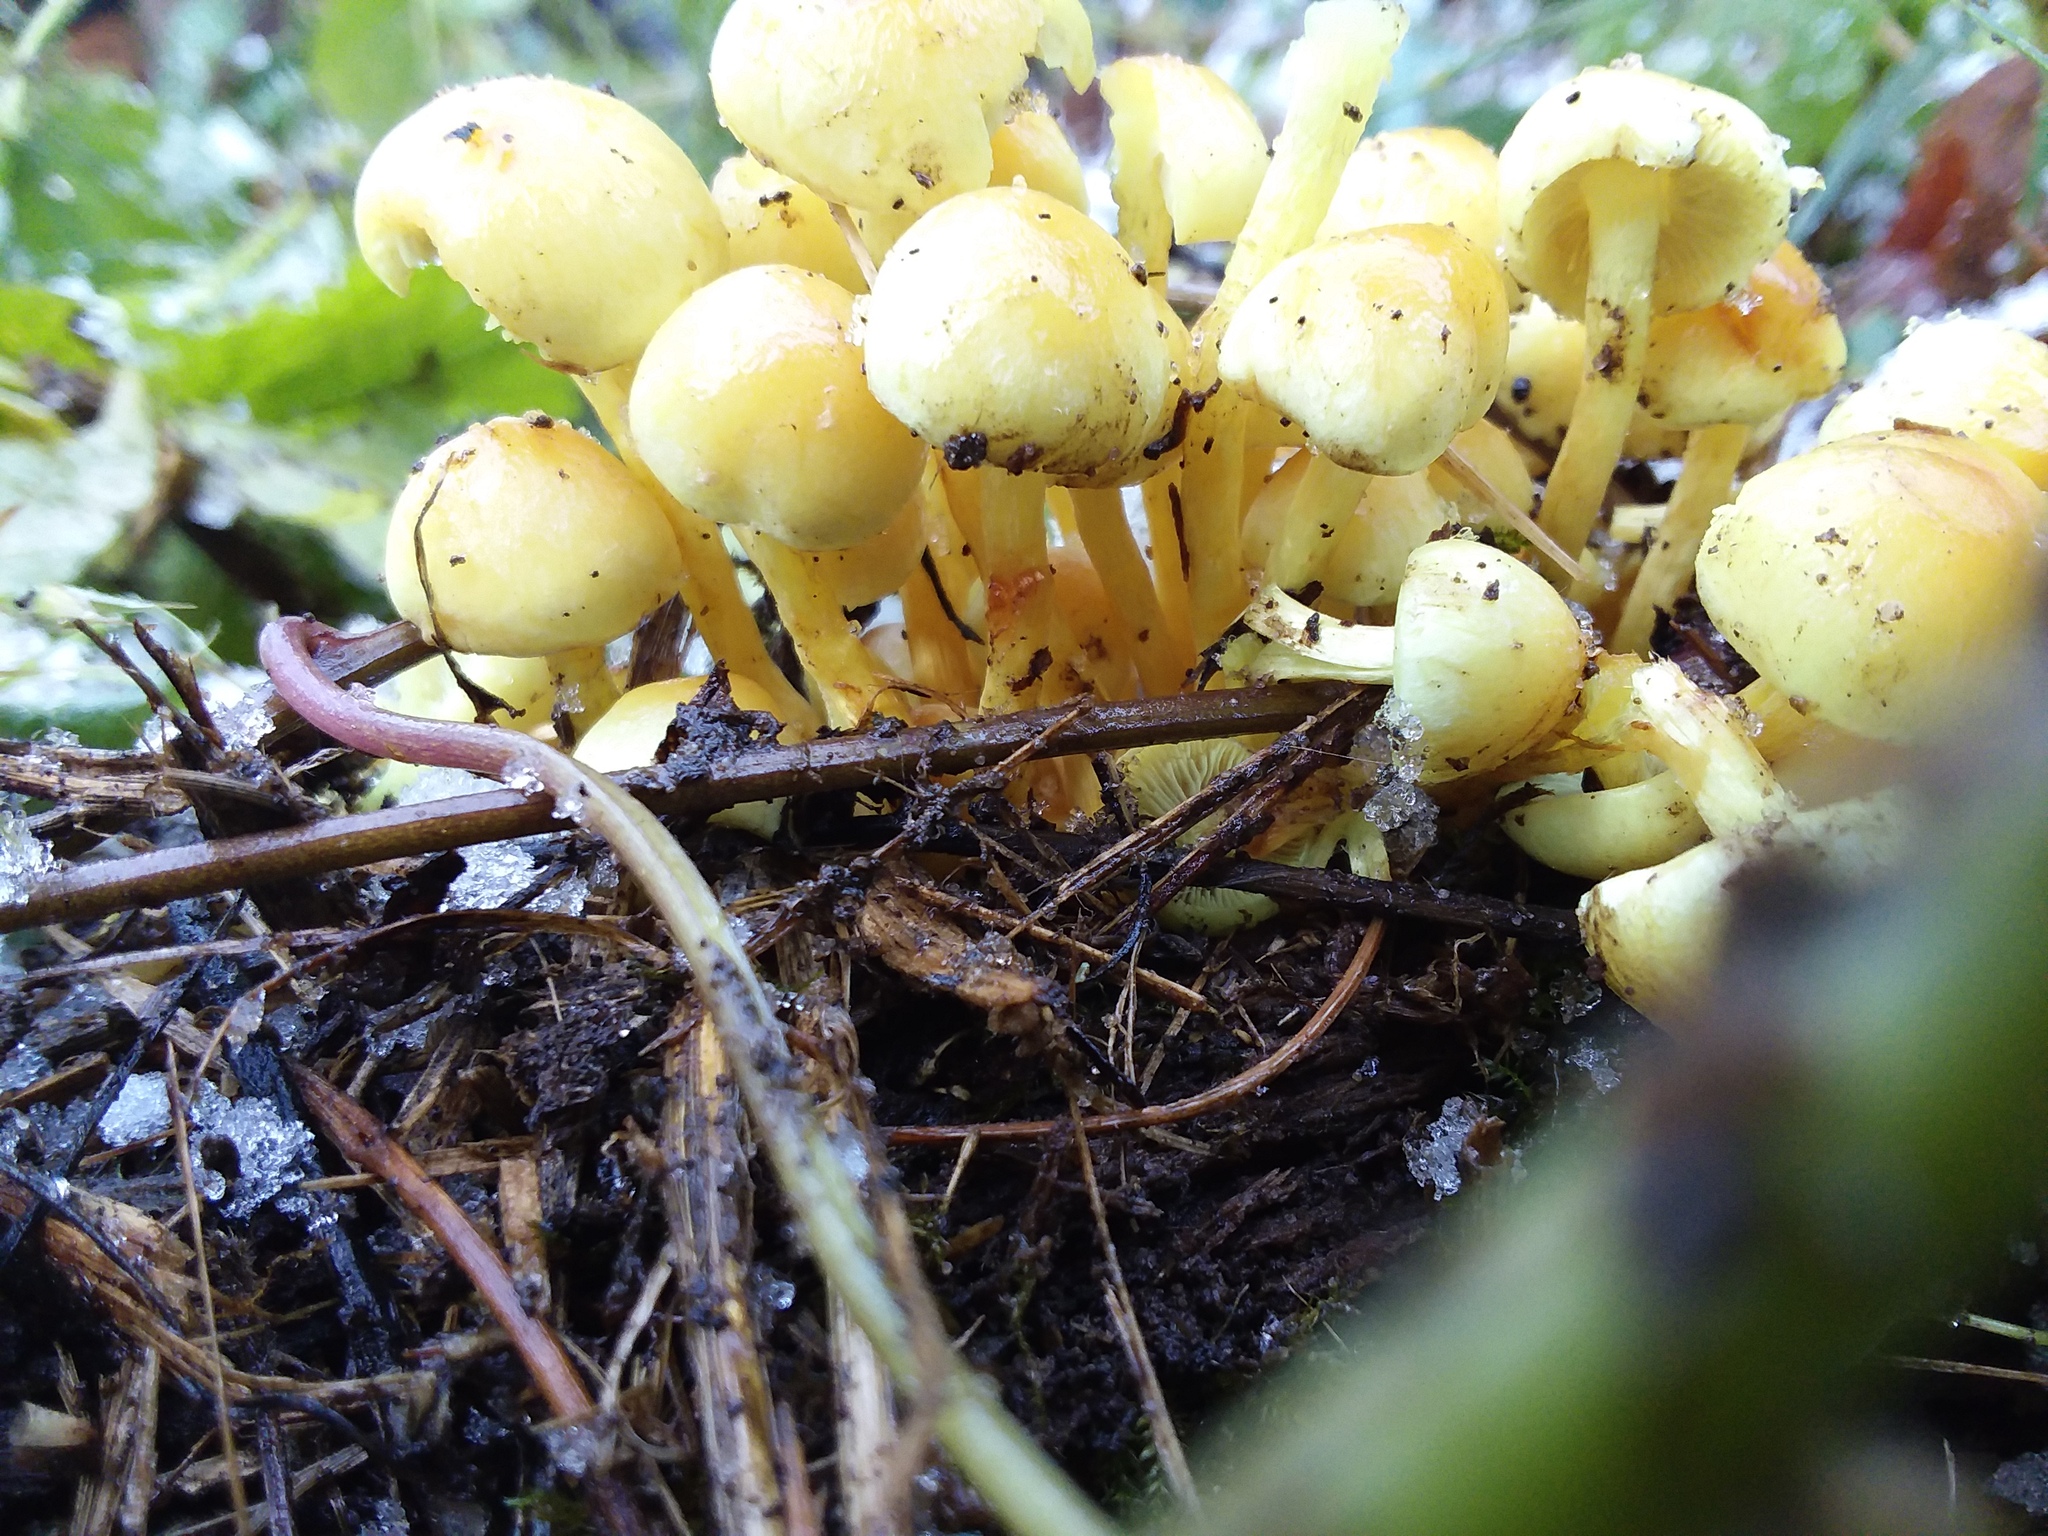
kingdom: Fungi
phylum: Basidiomycota
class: Agaricomycetes
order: Agaricales
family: Strophariaceae
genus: Hypholoma
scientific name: Hypholoma fasciculare
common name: Sulphur tuft
